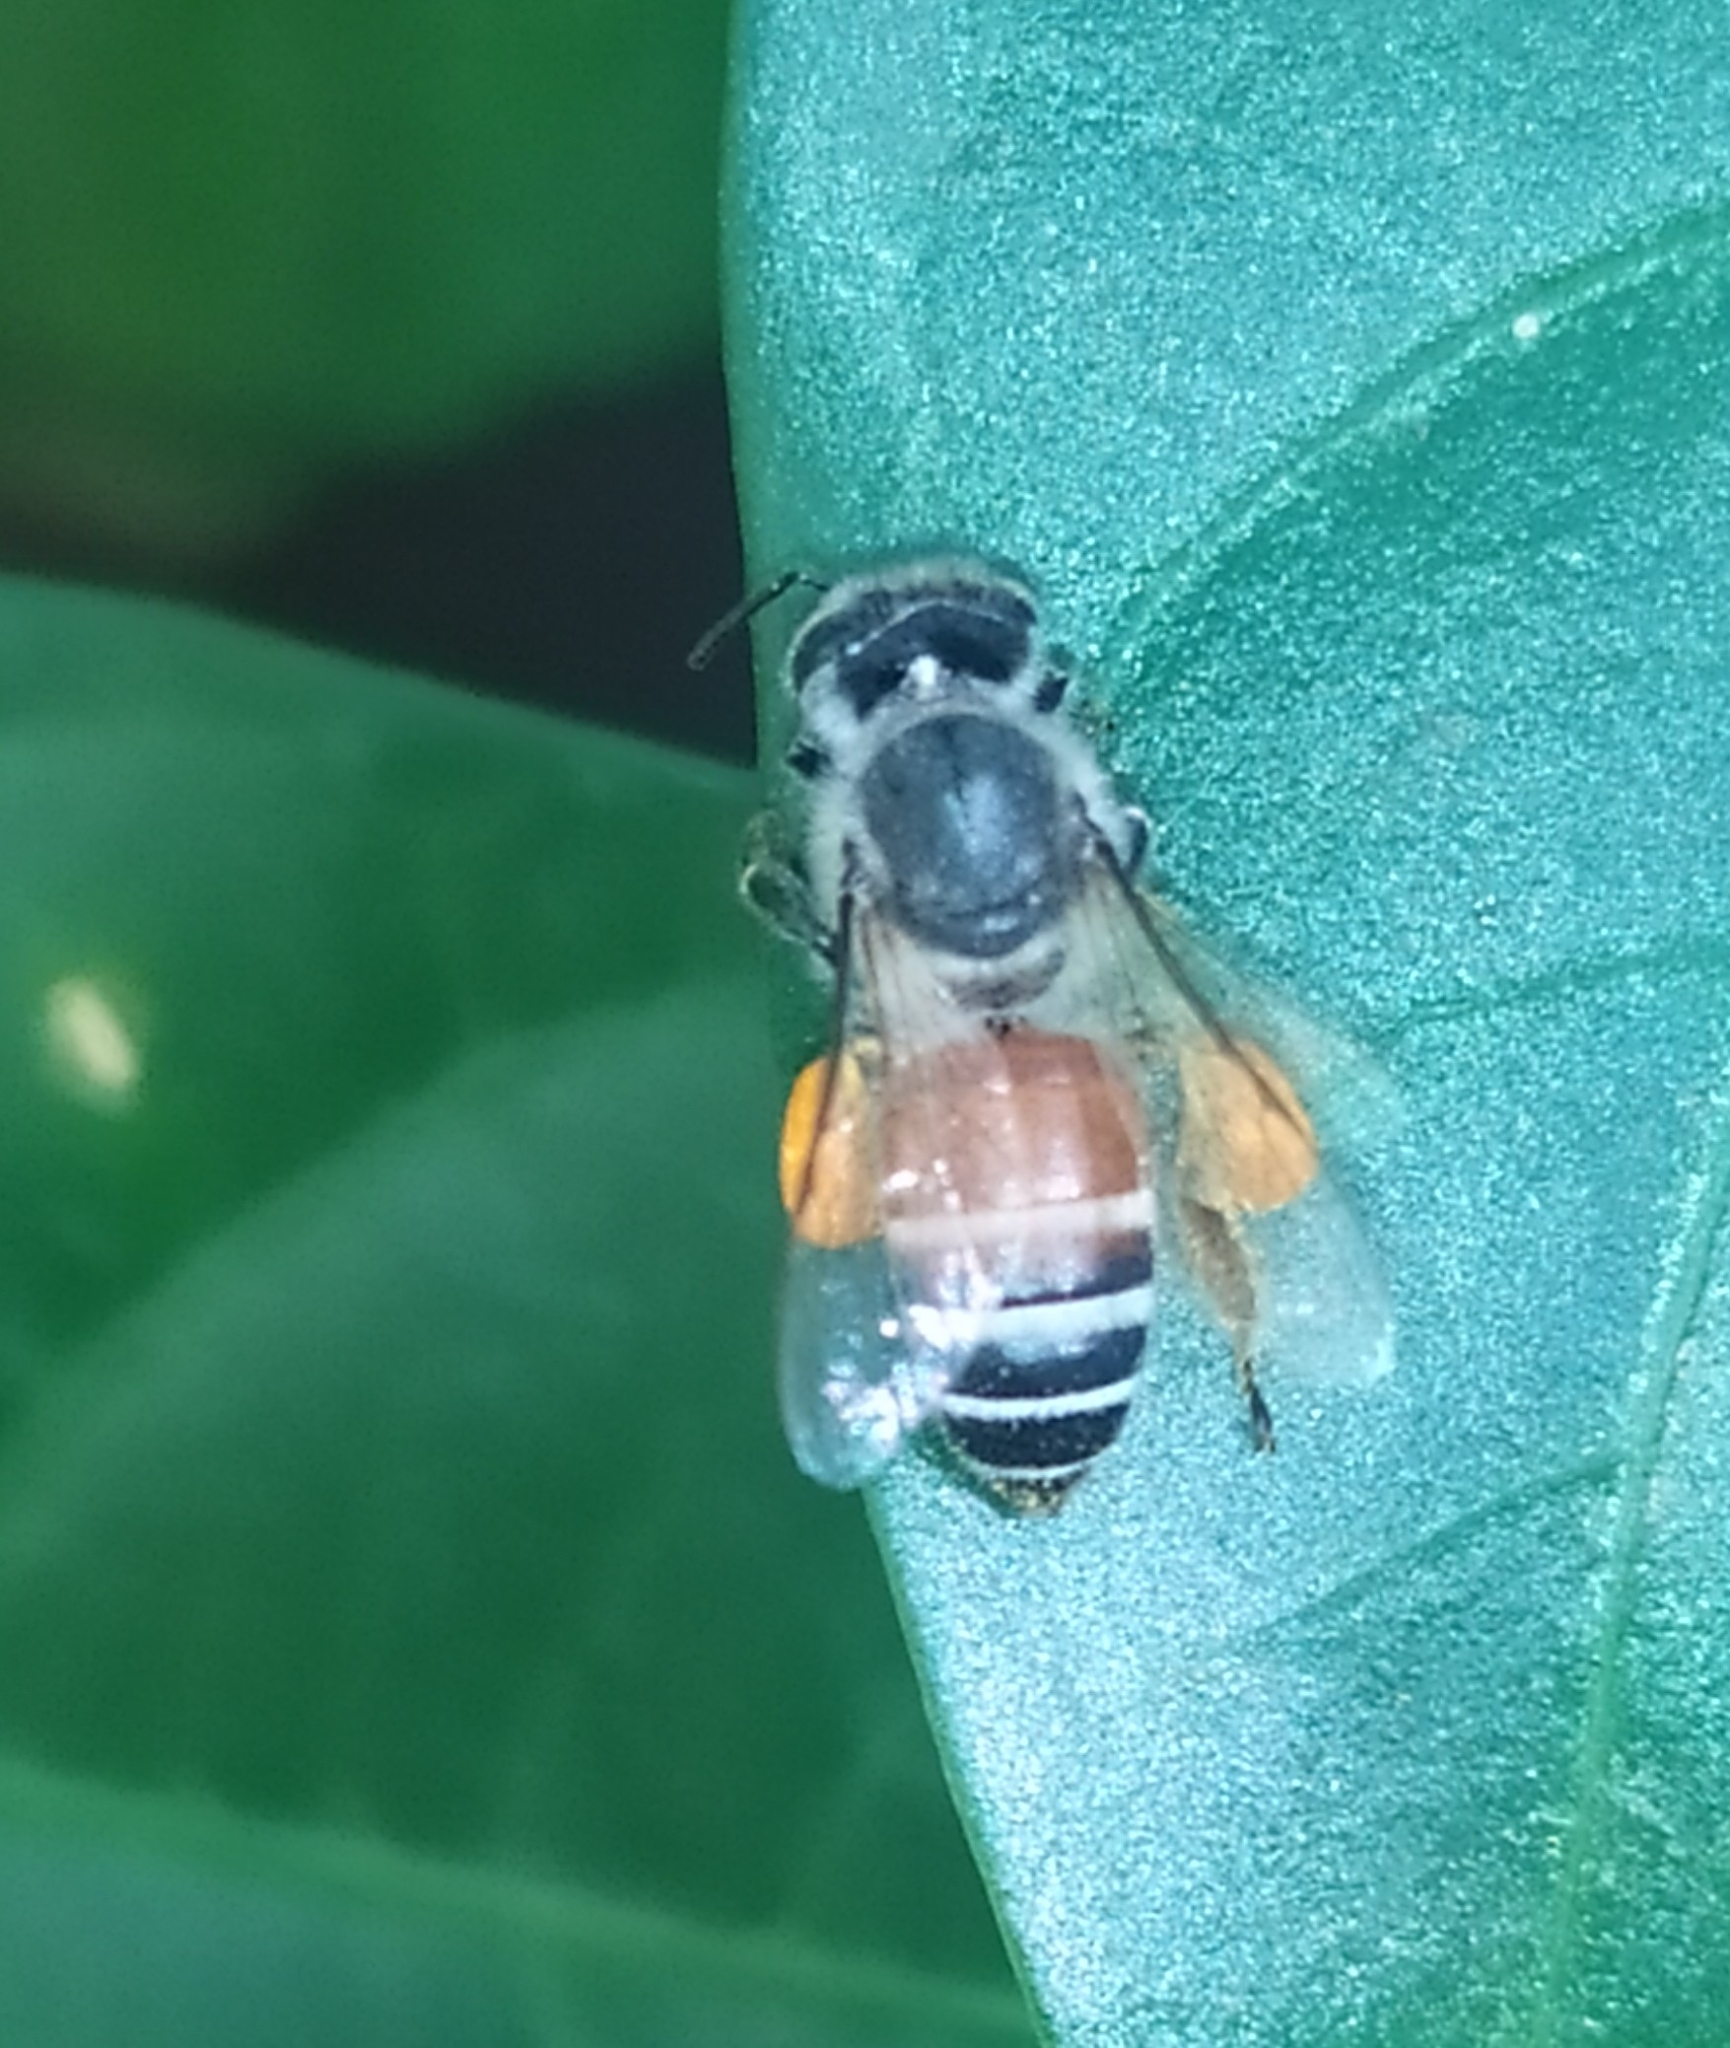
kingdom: Animalia
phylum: Arthropoda
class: Insecta
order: Hymenoptera
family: Apidae
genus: Apis
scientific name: Apis florea
